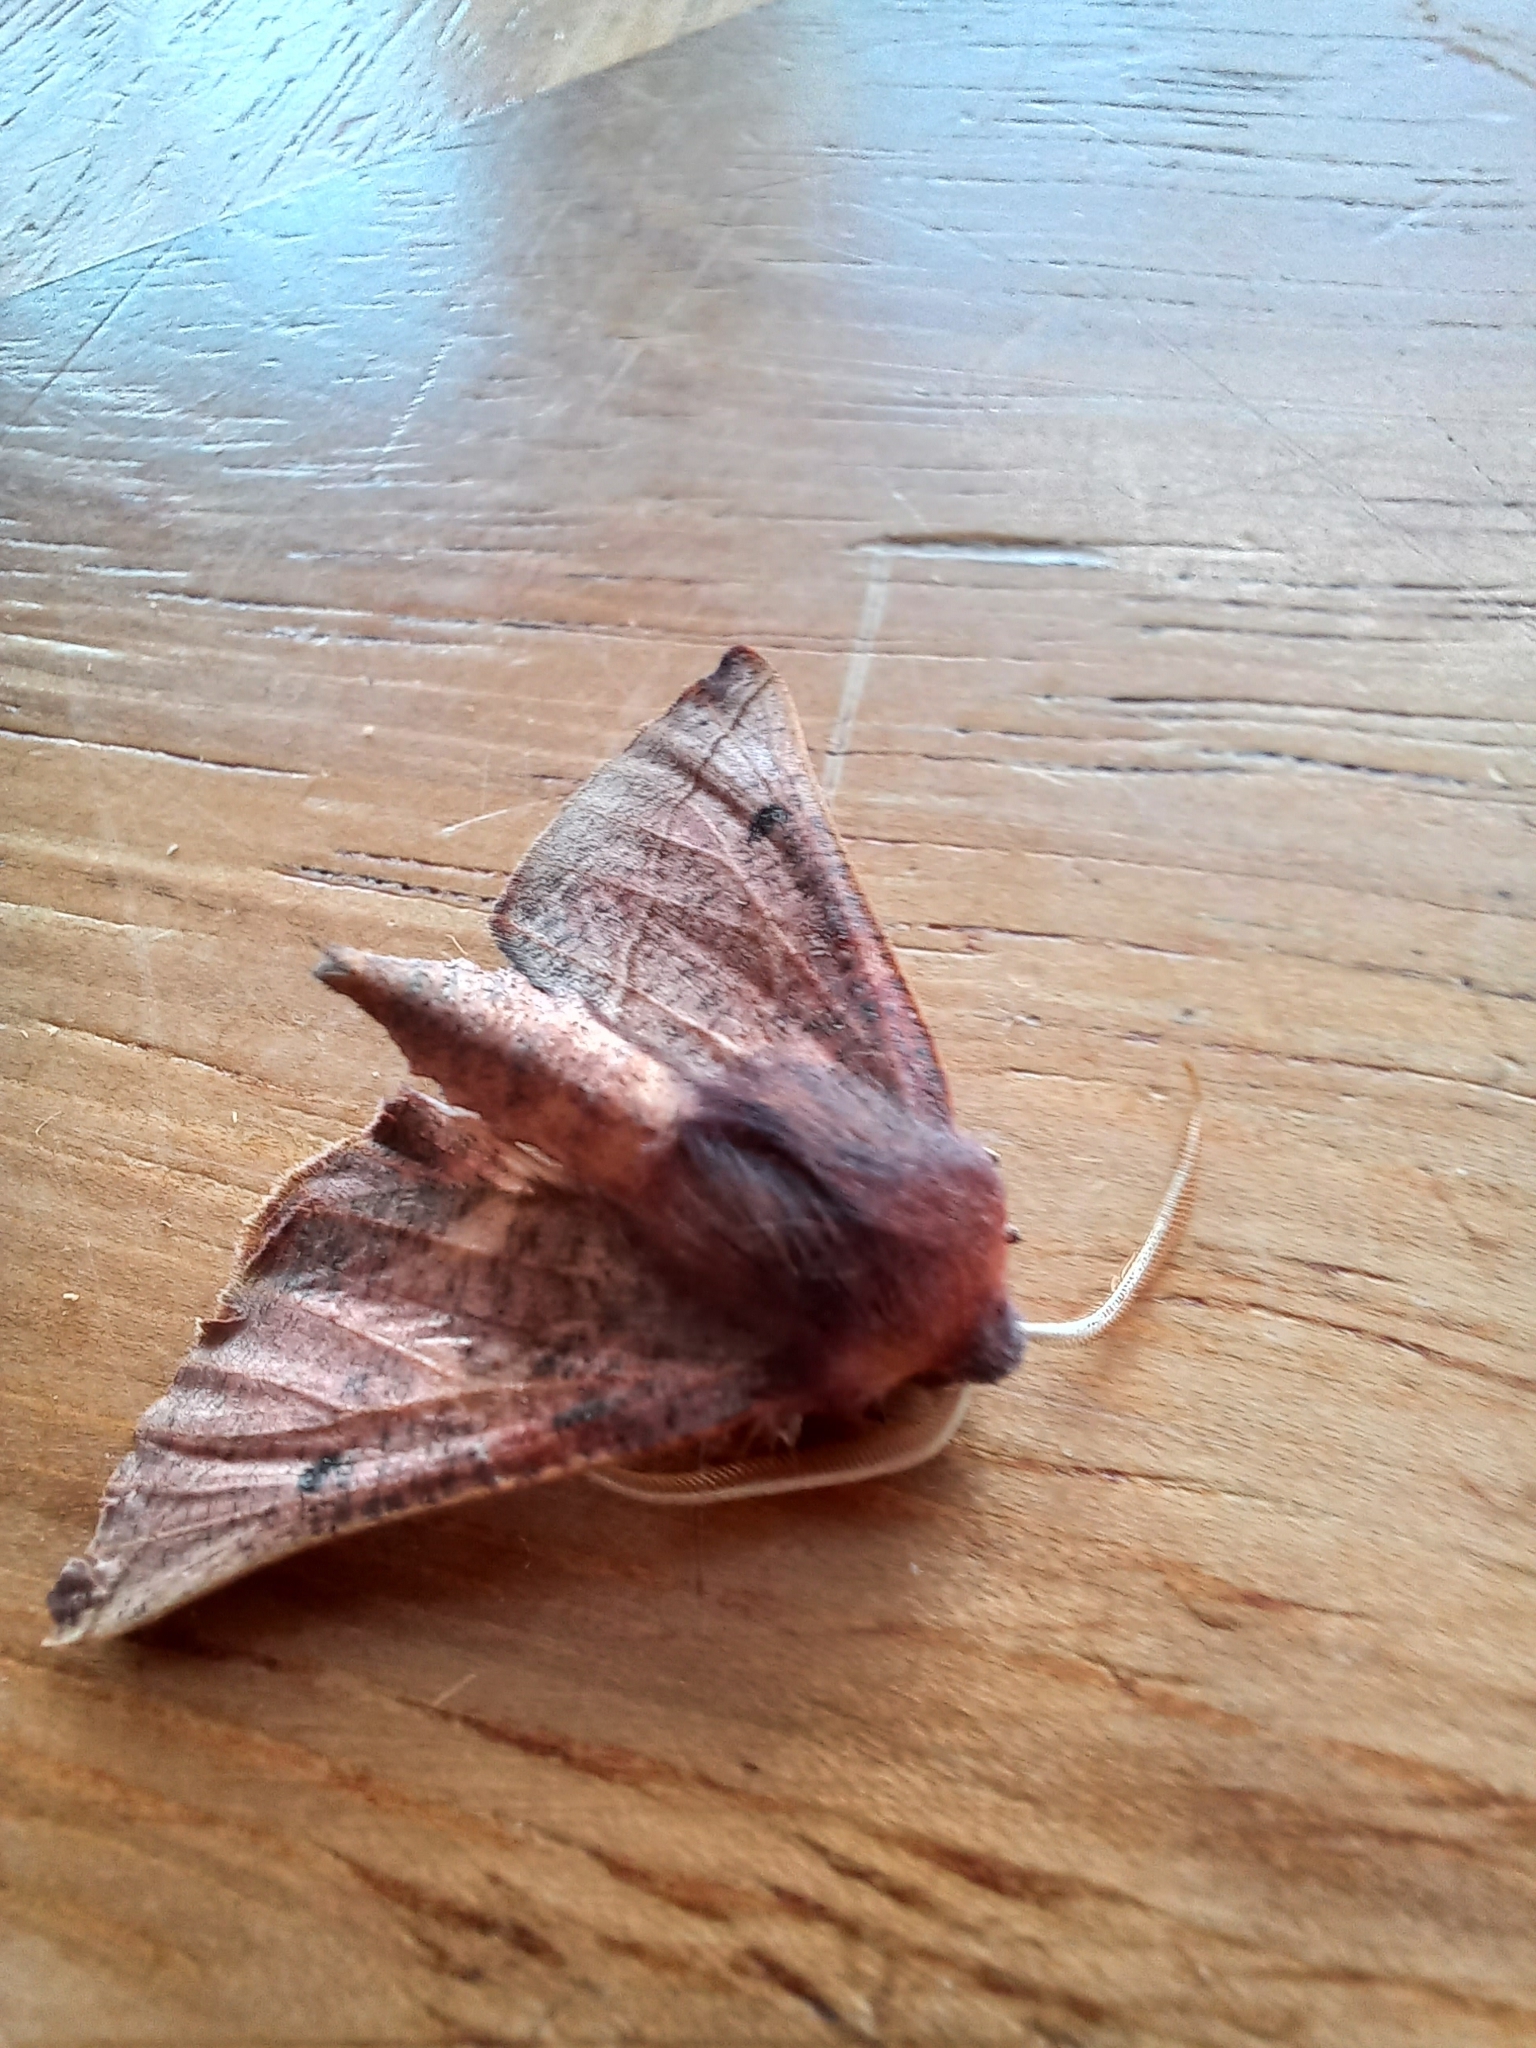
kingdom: Animalia
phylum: Arthropoda
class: Insecta
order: Lepidoptera
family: Geometridae
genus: Derrioides
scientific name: Derrioides villaria
